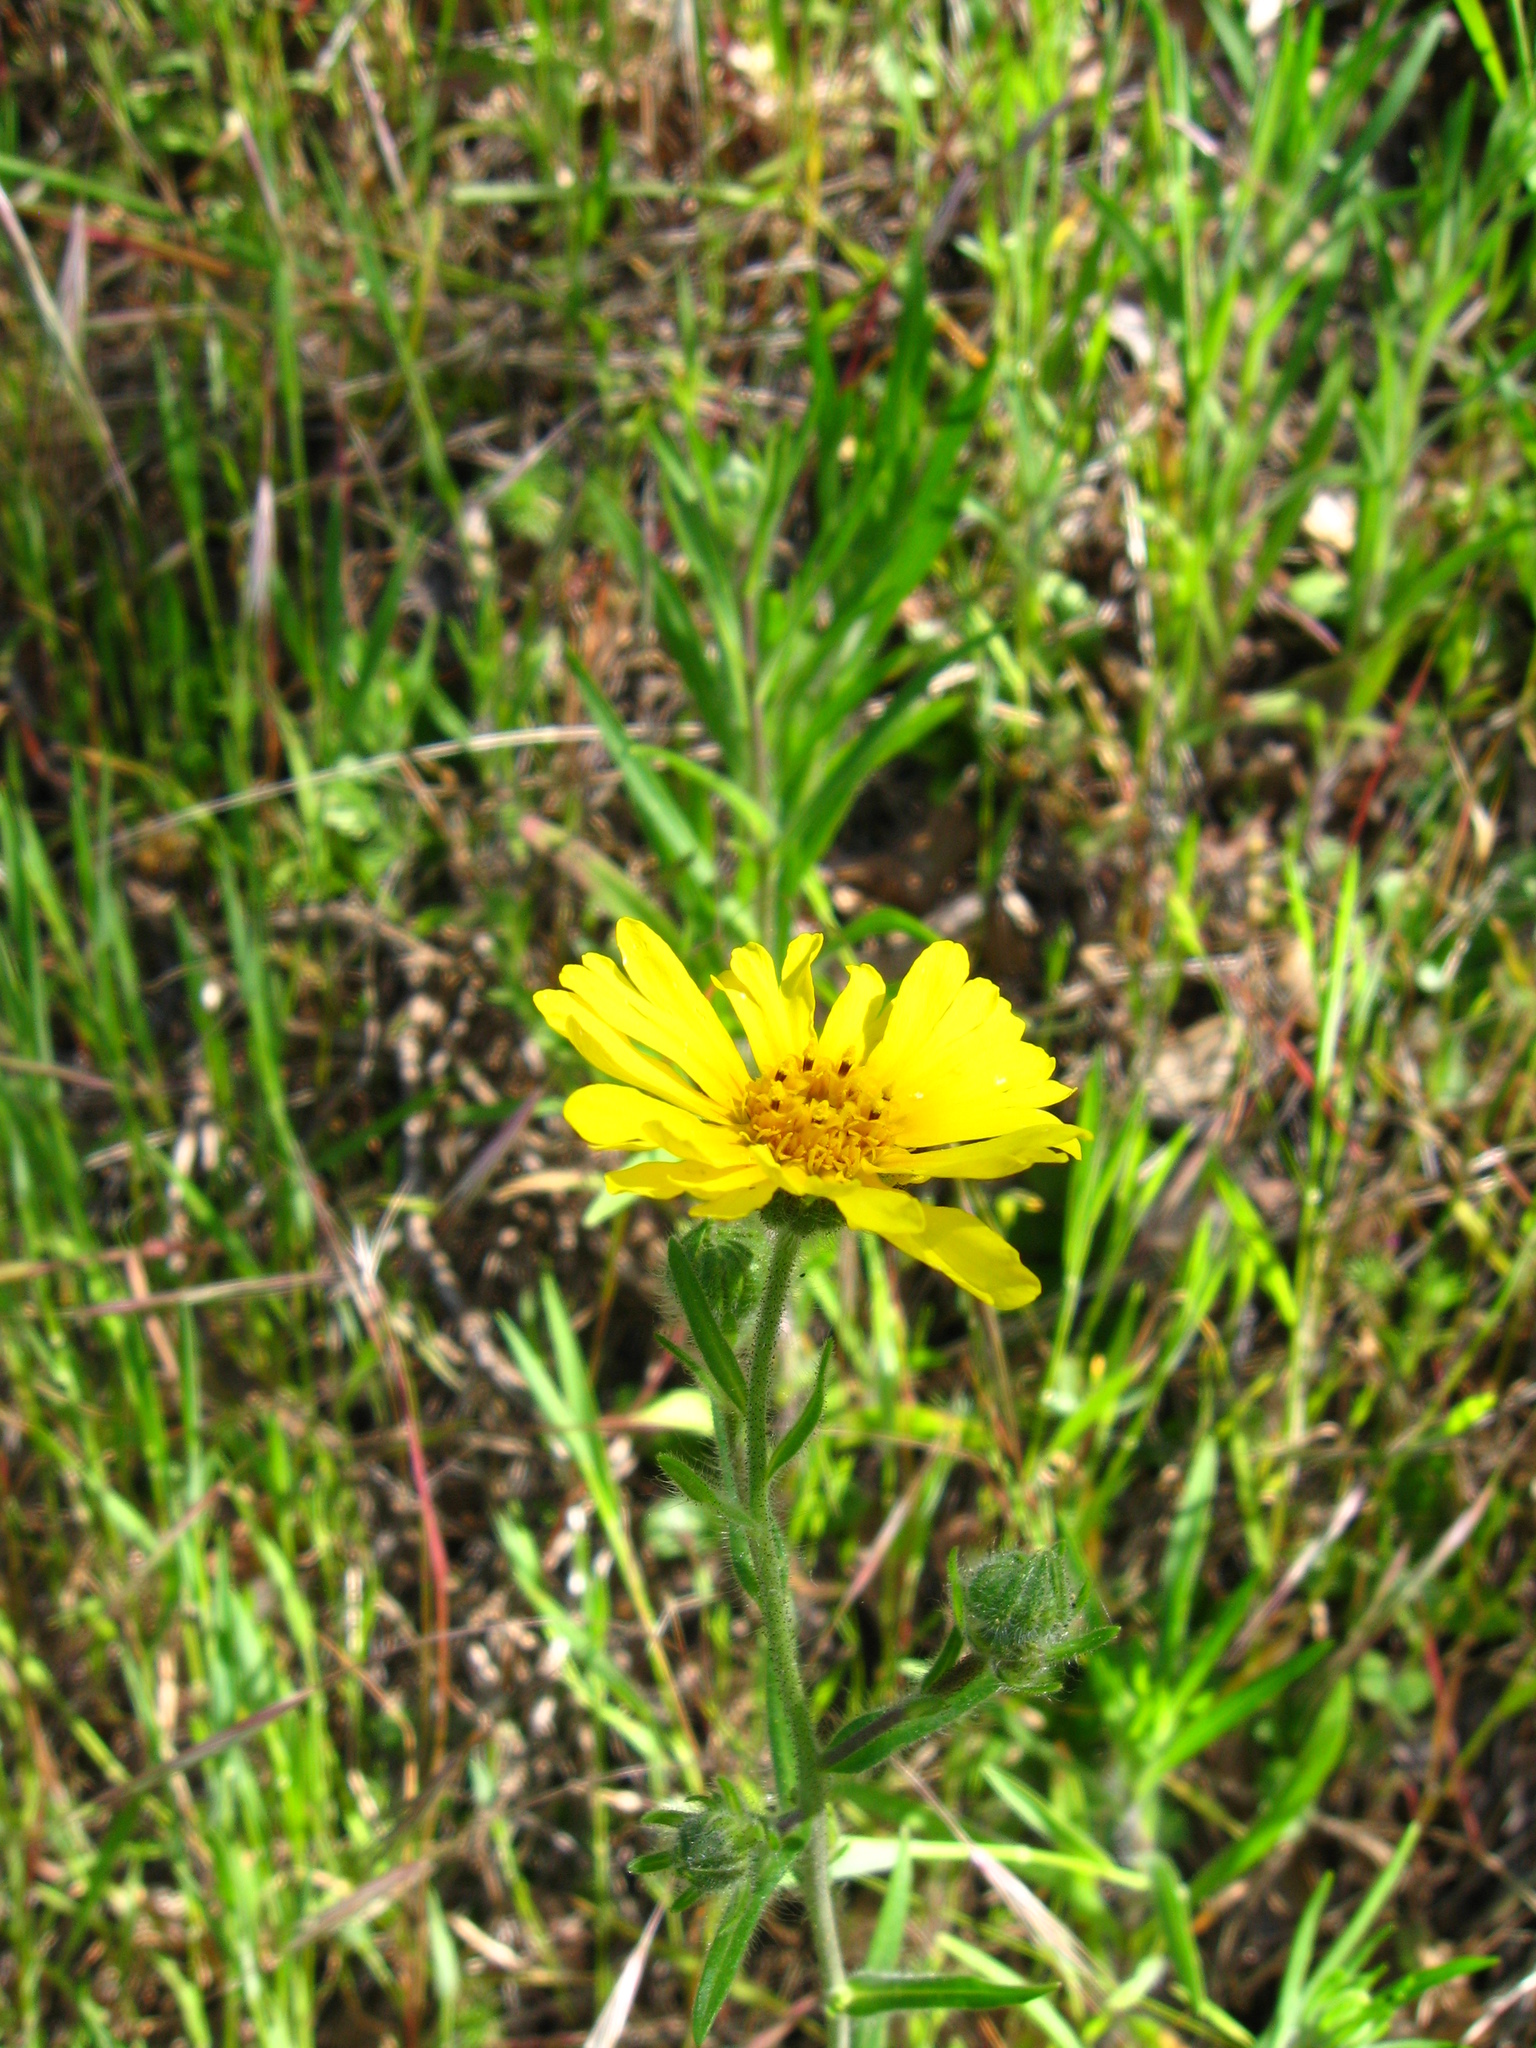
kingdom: Plantae
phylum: Tracheophyta
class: Magnoliopsida
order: Asterales
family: Asteraceae
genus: Madia
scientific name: Madia elegans
